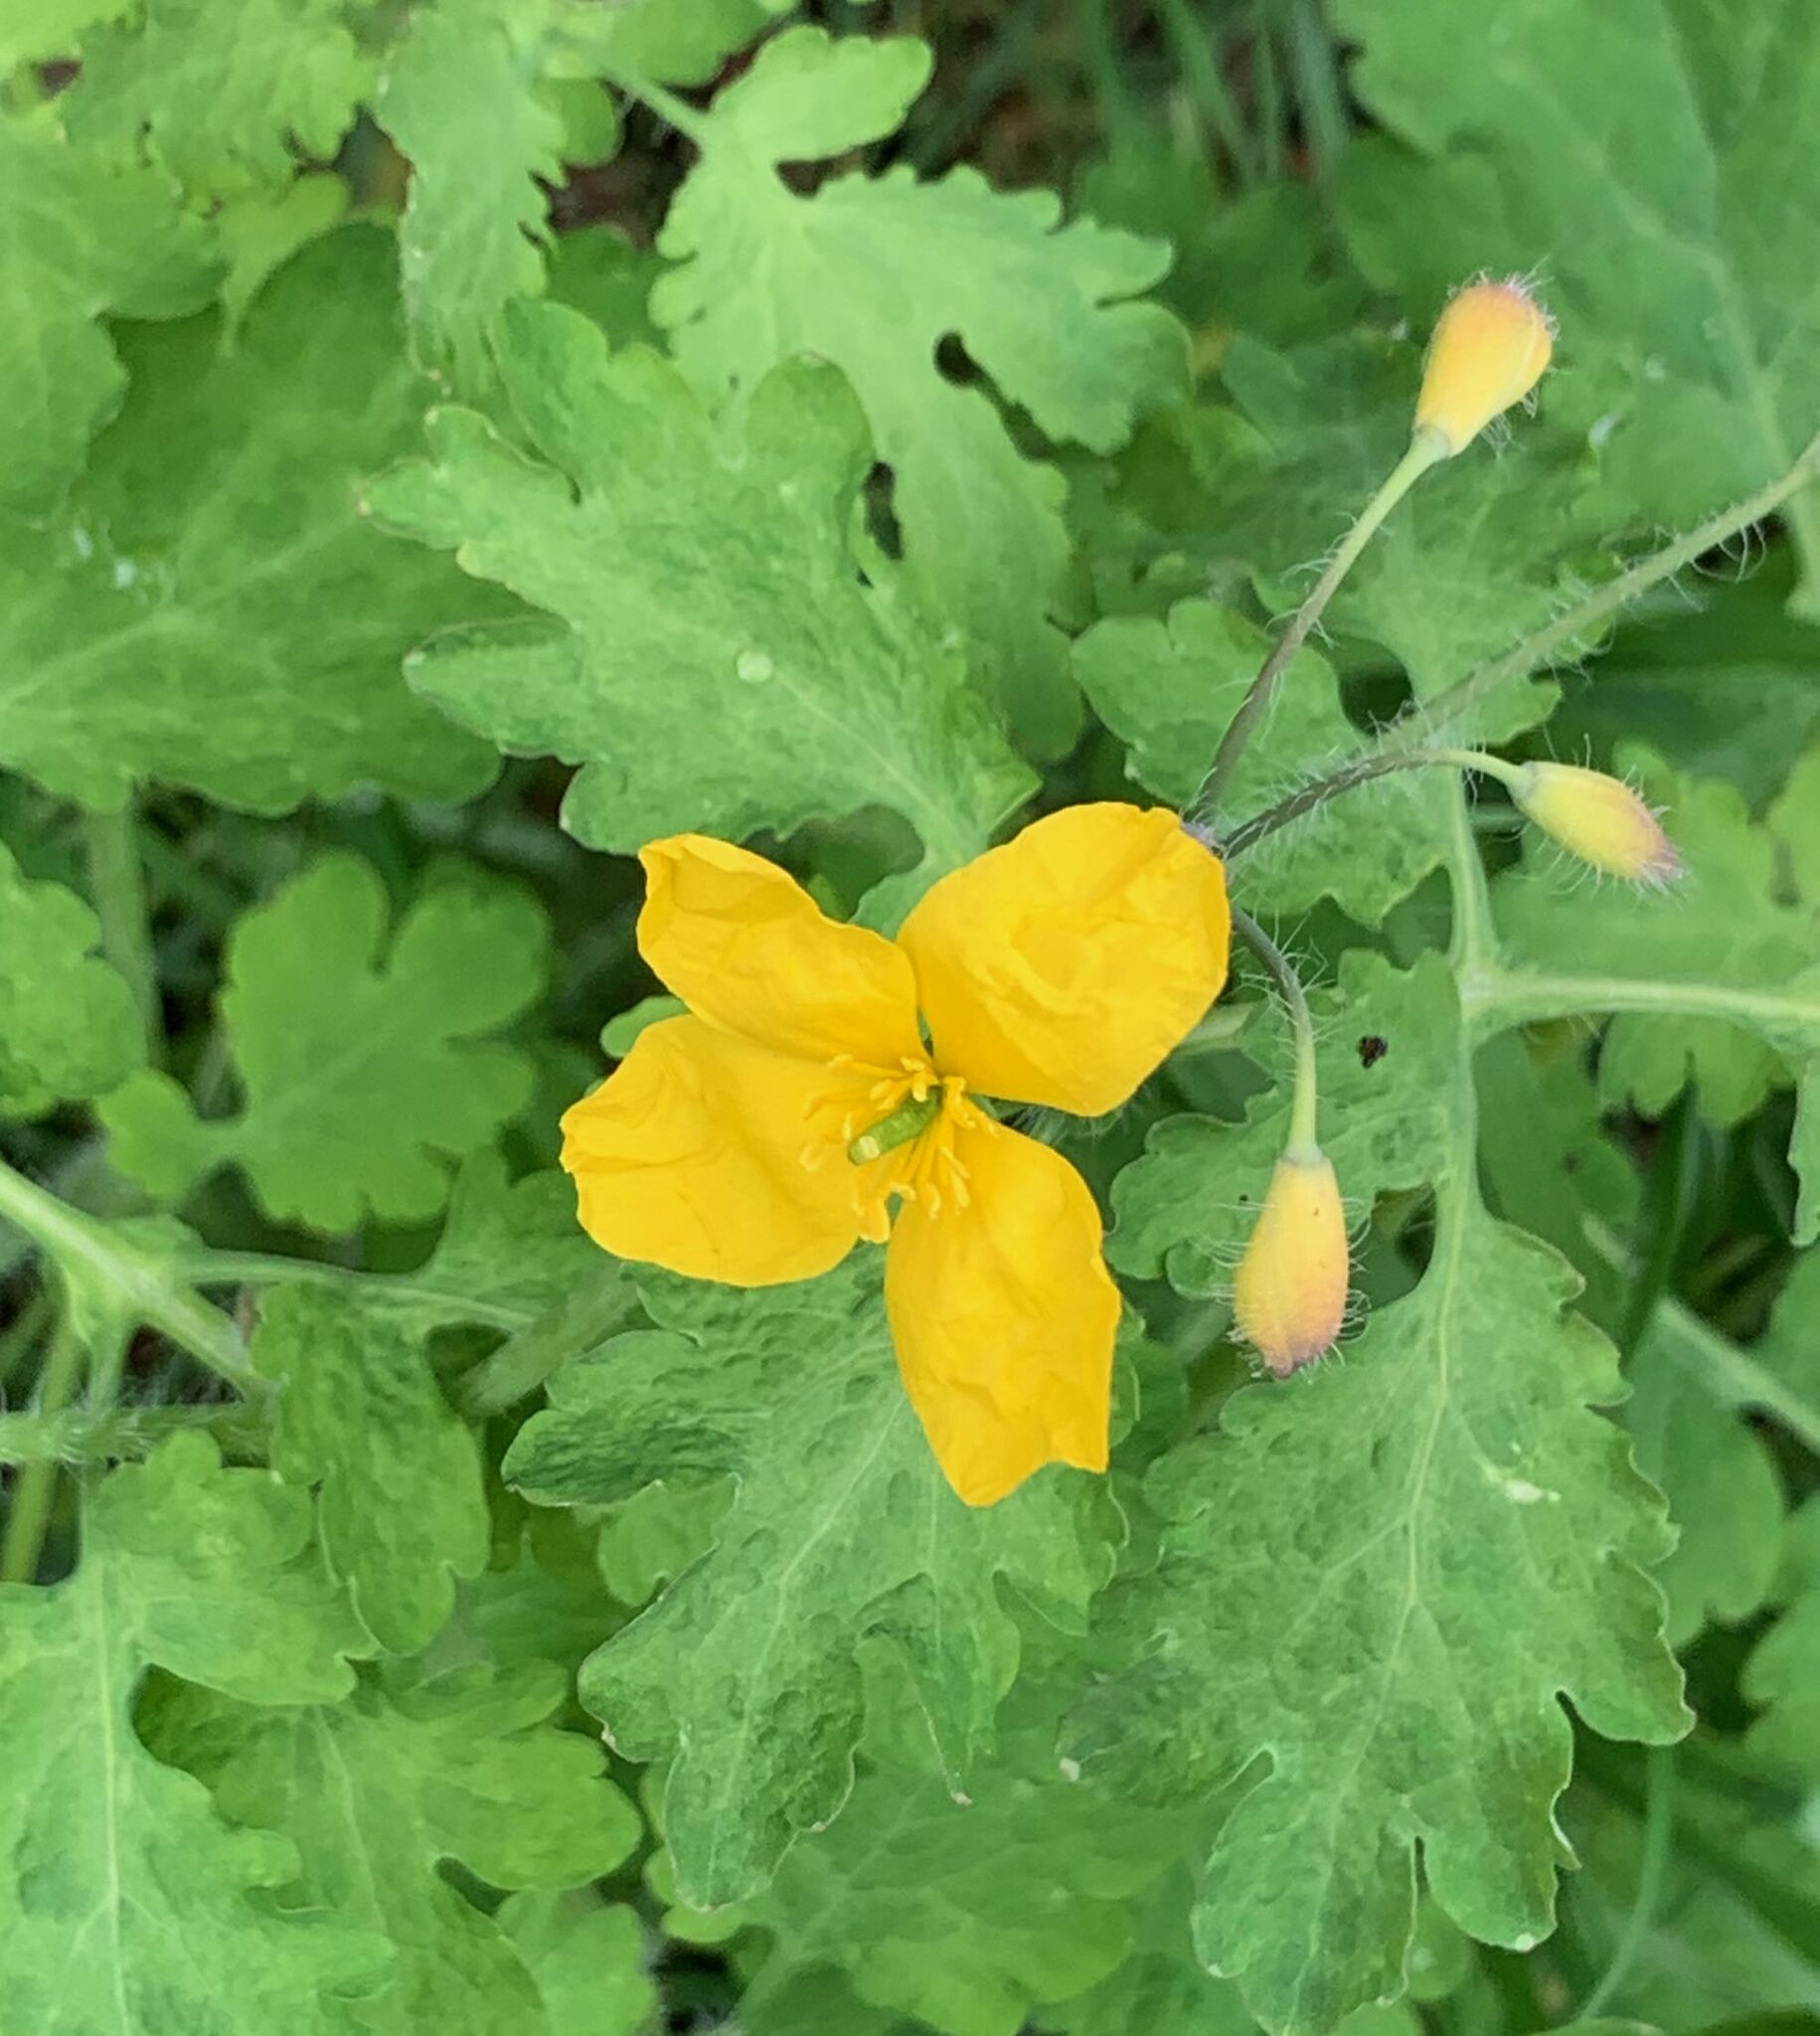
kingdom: Plantae
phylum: Tracheophyta
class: Magnoliopsida
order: Ranunculales
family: Papaveraceae
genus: Chelidonium
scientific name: Chelidonium majus
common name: Greater celandine
